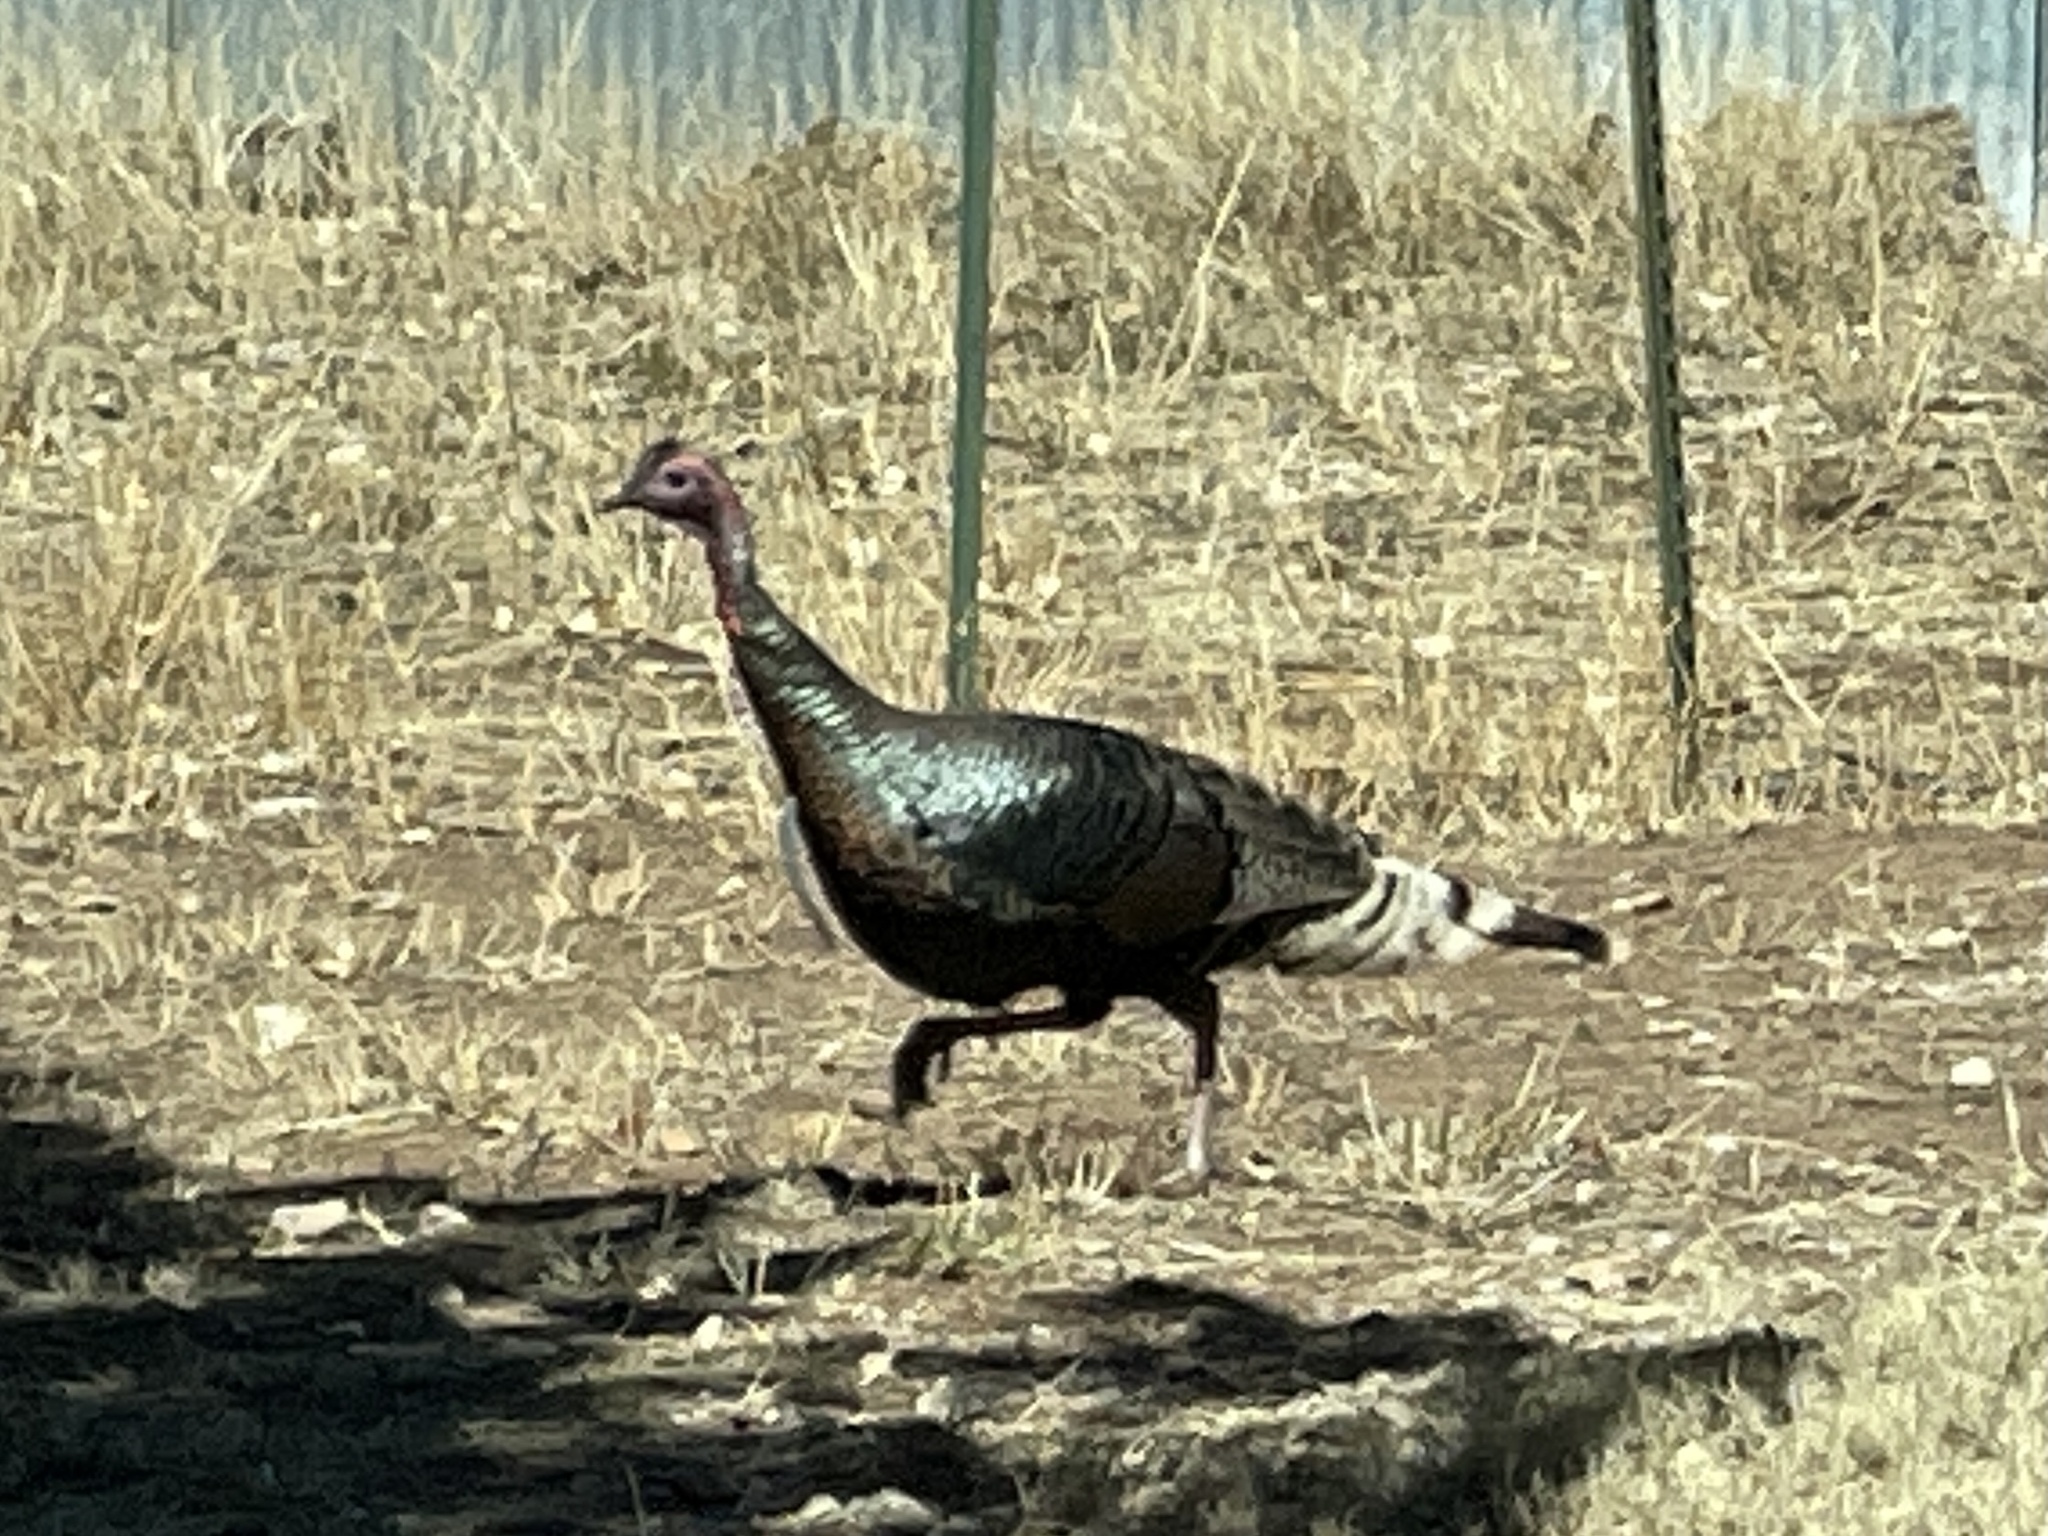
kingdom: Animalia
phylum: Chordata
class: Aves
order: Galliformes
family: Phasianidae
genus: Meleagris
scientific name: Meleagris gallopavo
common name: Wild turkey
